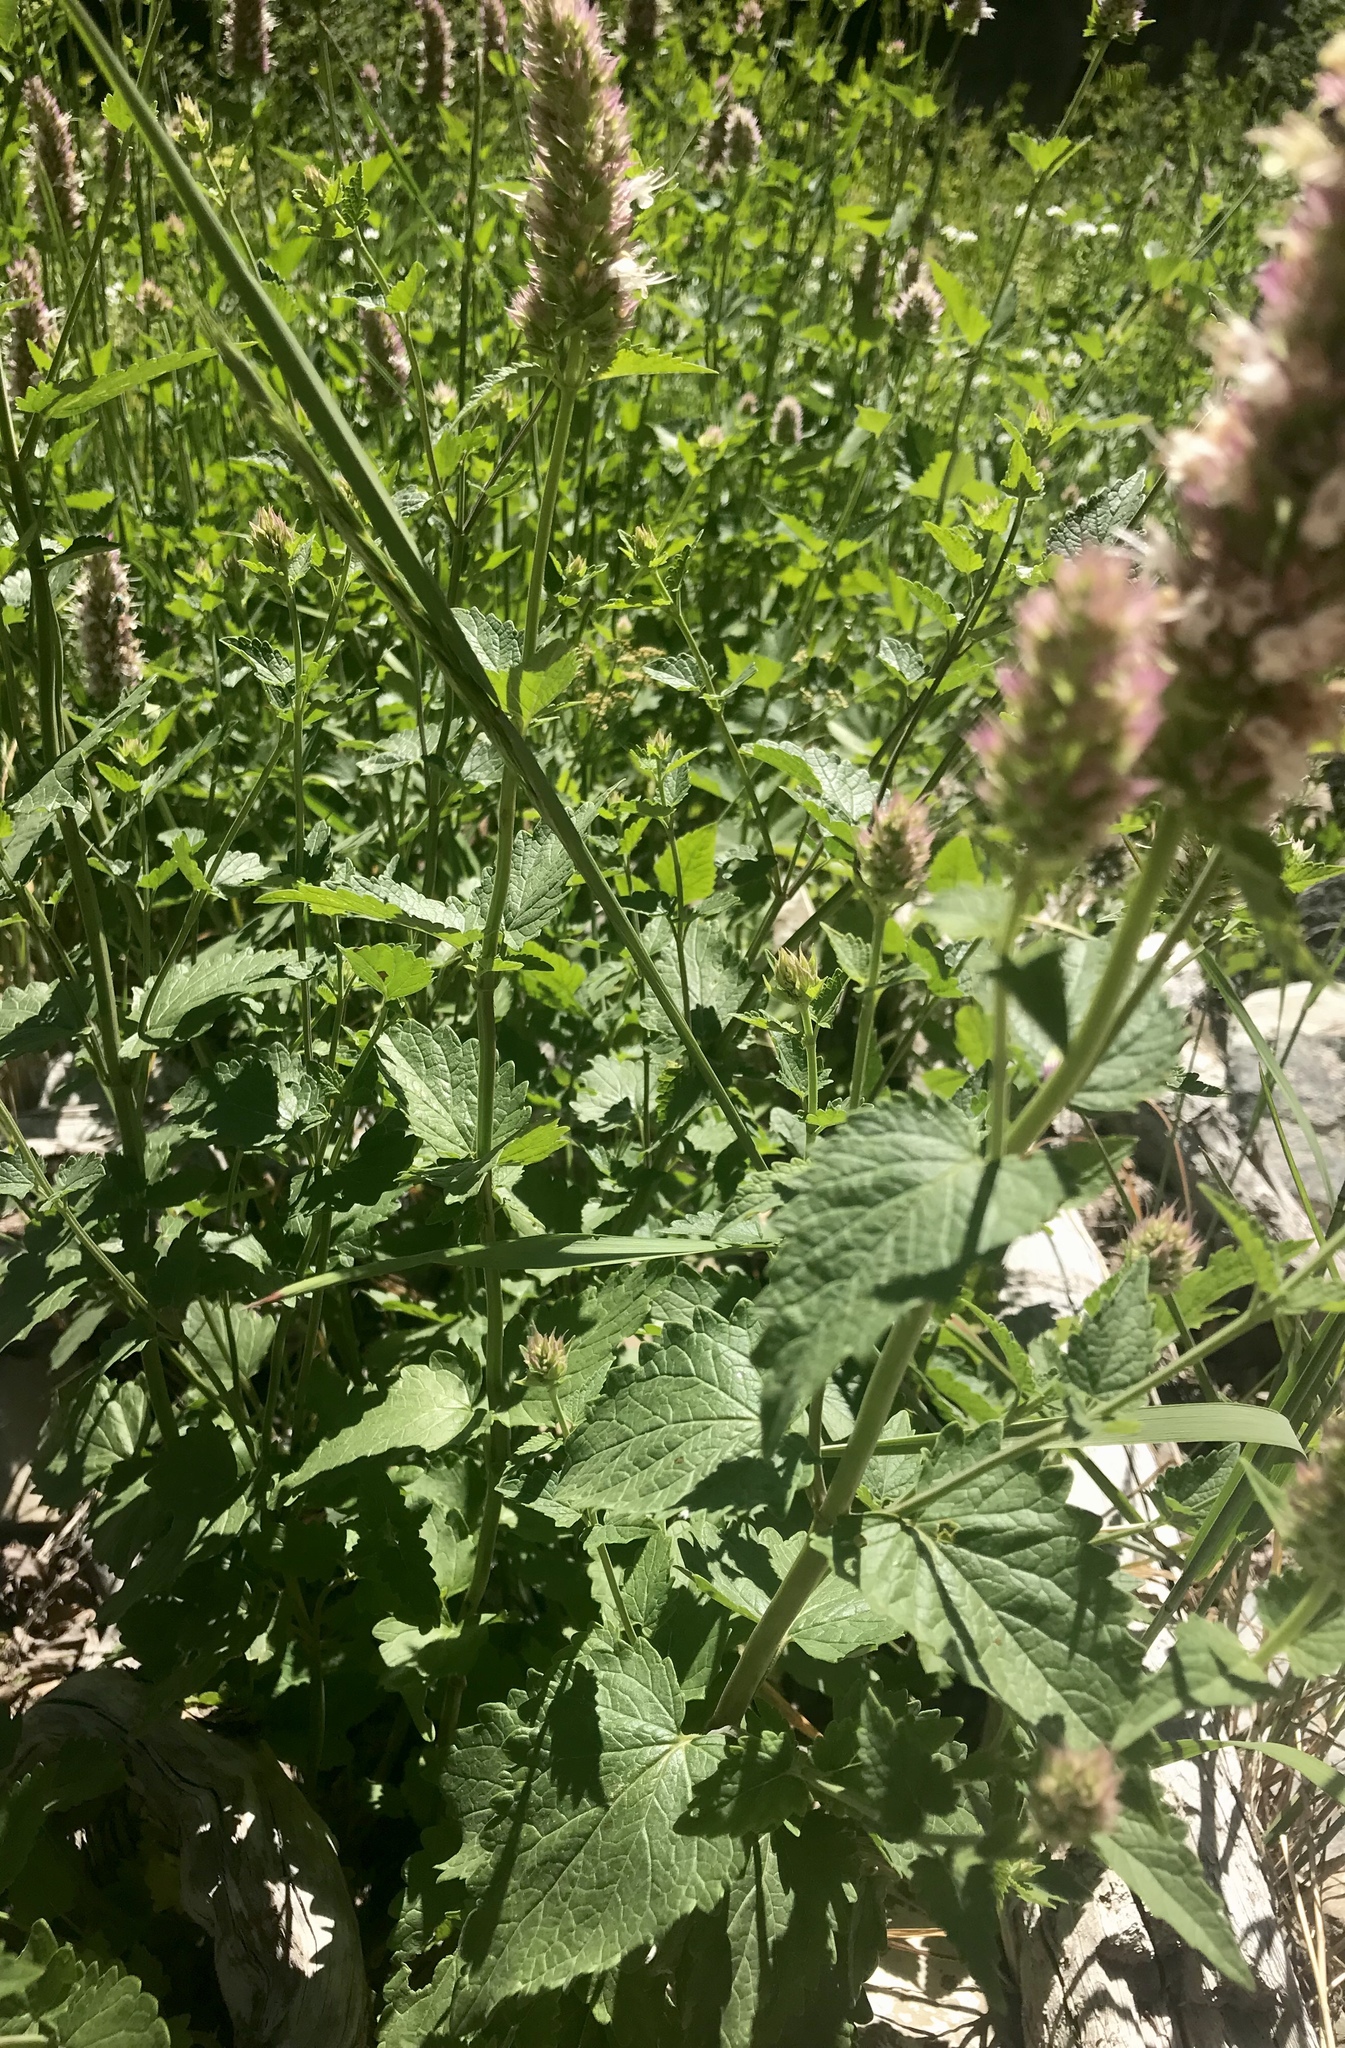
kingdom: Plantae
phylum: Tracheophyta
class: Magnoliopsida
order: Lamiales
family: Lamiaceae
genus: Agastache
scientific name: Agastache urticifolia
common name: Horsemint giant hyssop
